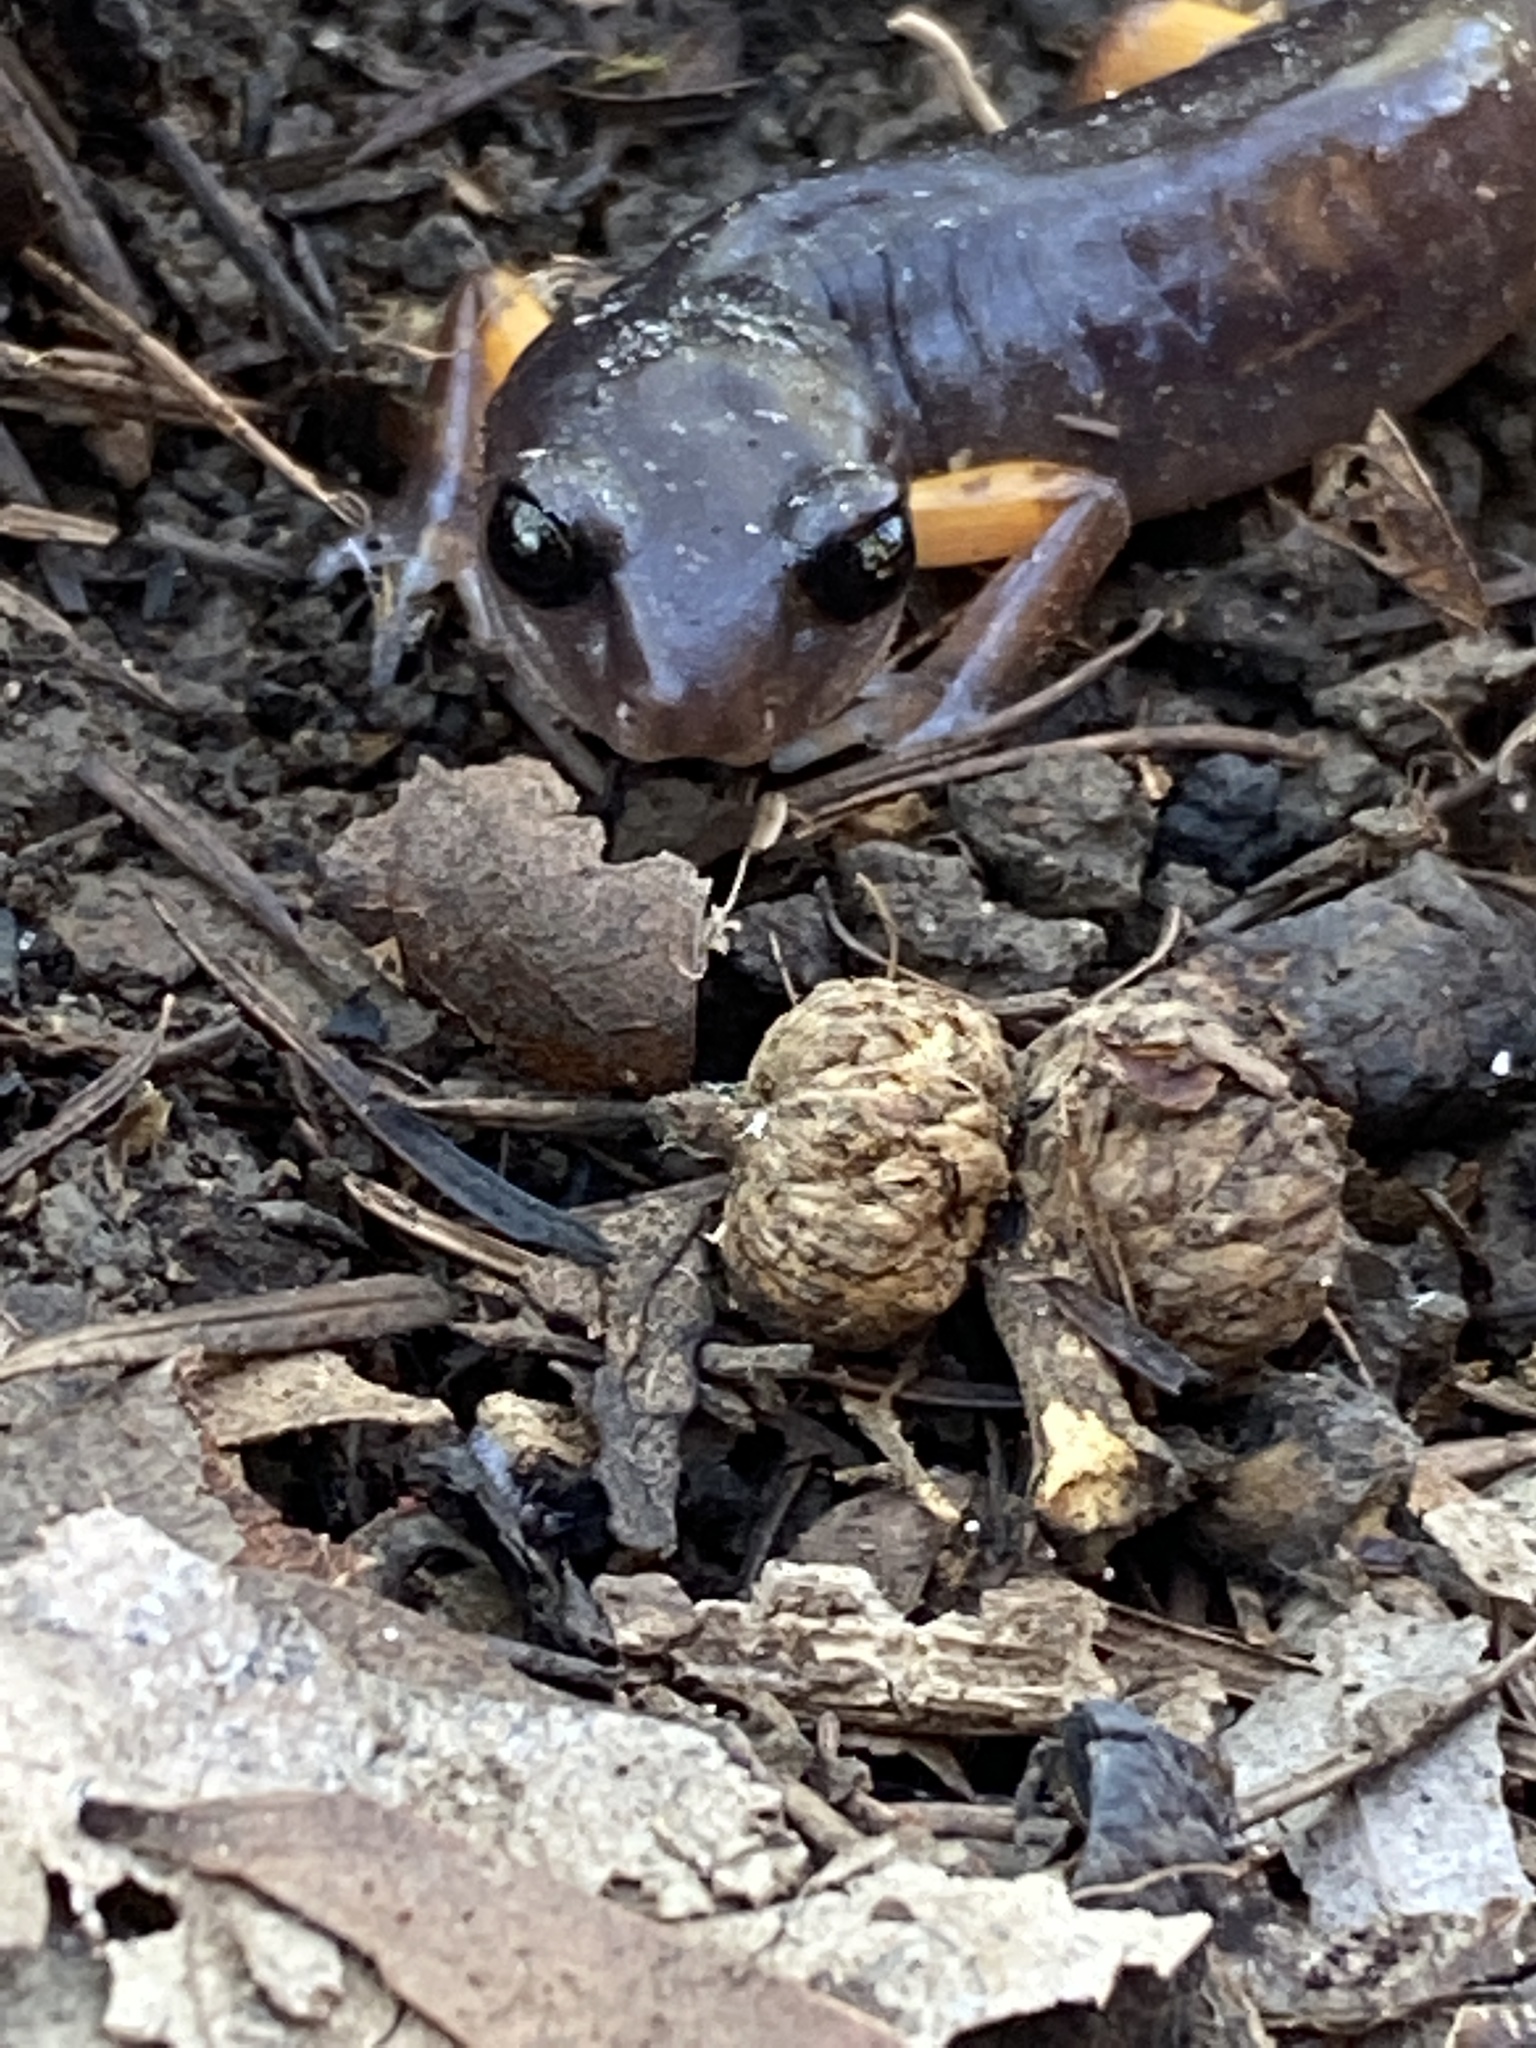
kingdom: Animalia
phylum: Chordata
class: Amphibia
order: Caudata
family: Plethodontidae
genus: Ensatina
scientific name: Ensatina eschscholtzii
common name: Ensatina
